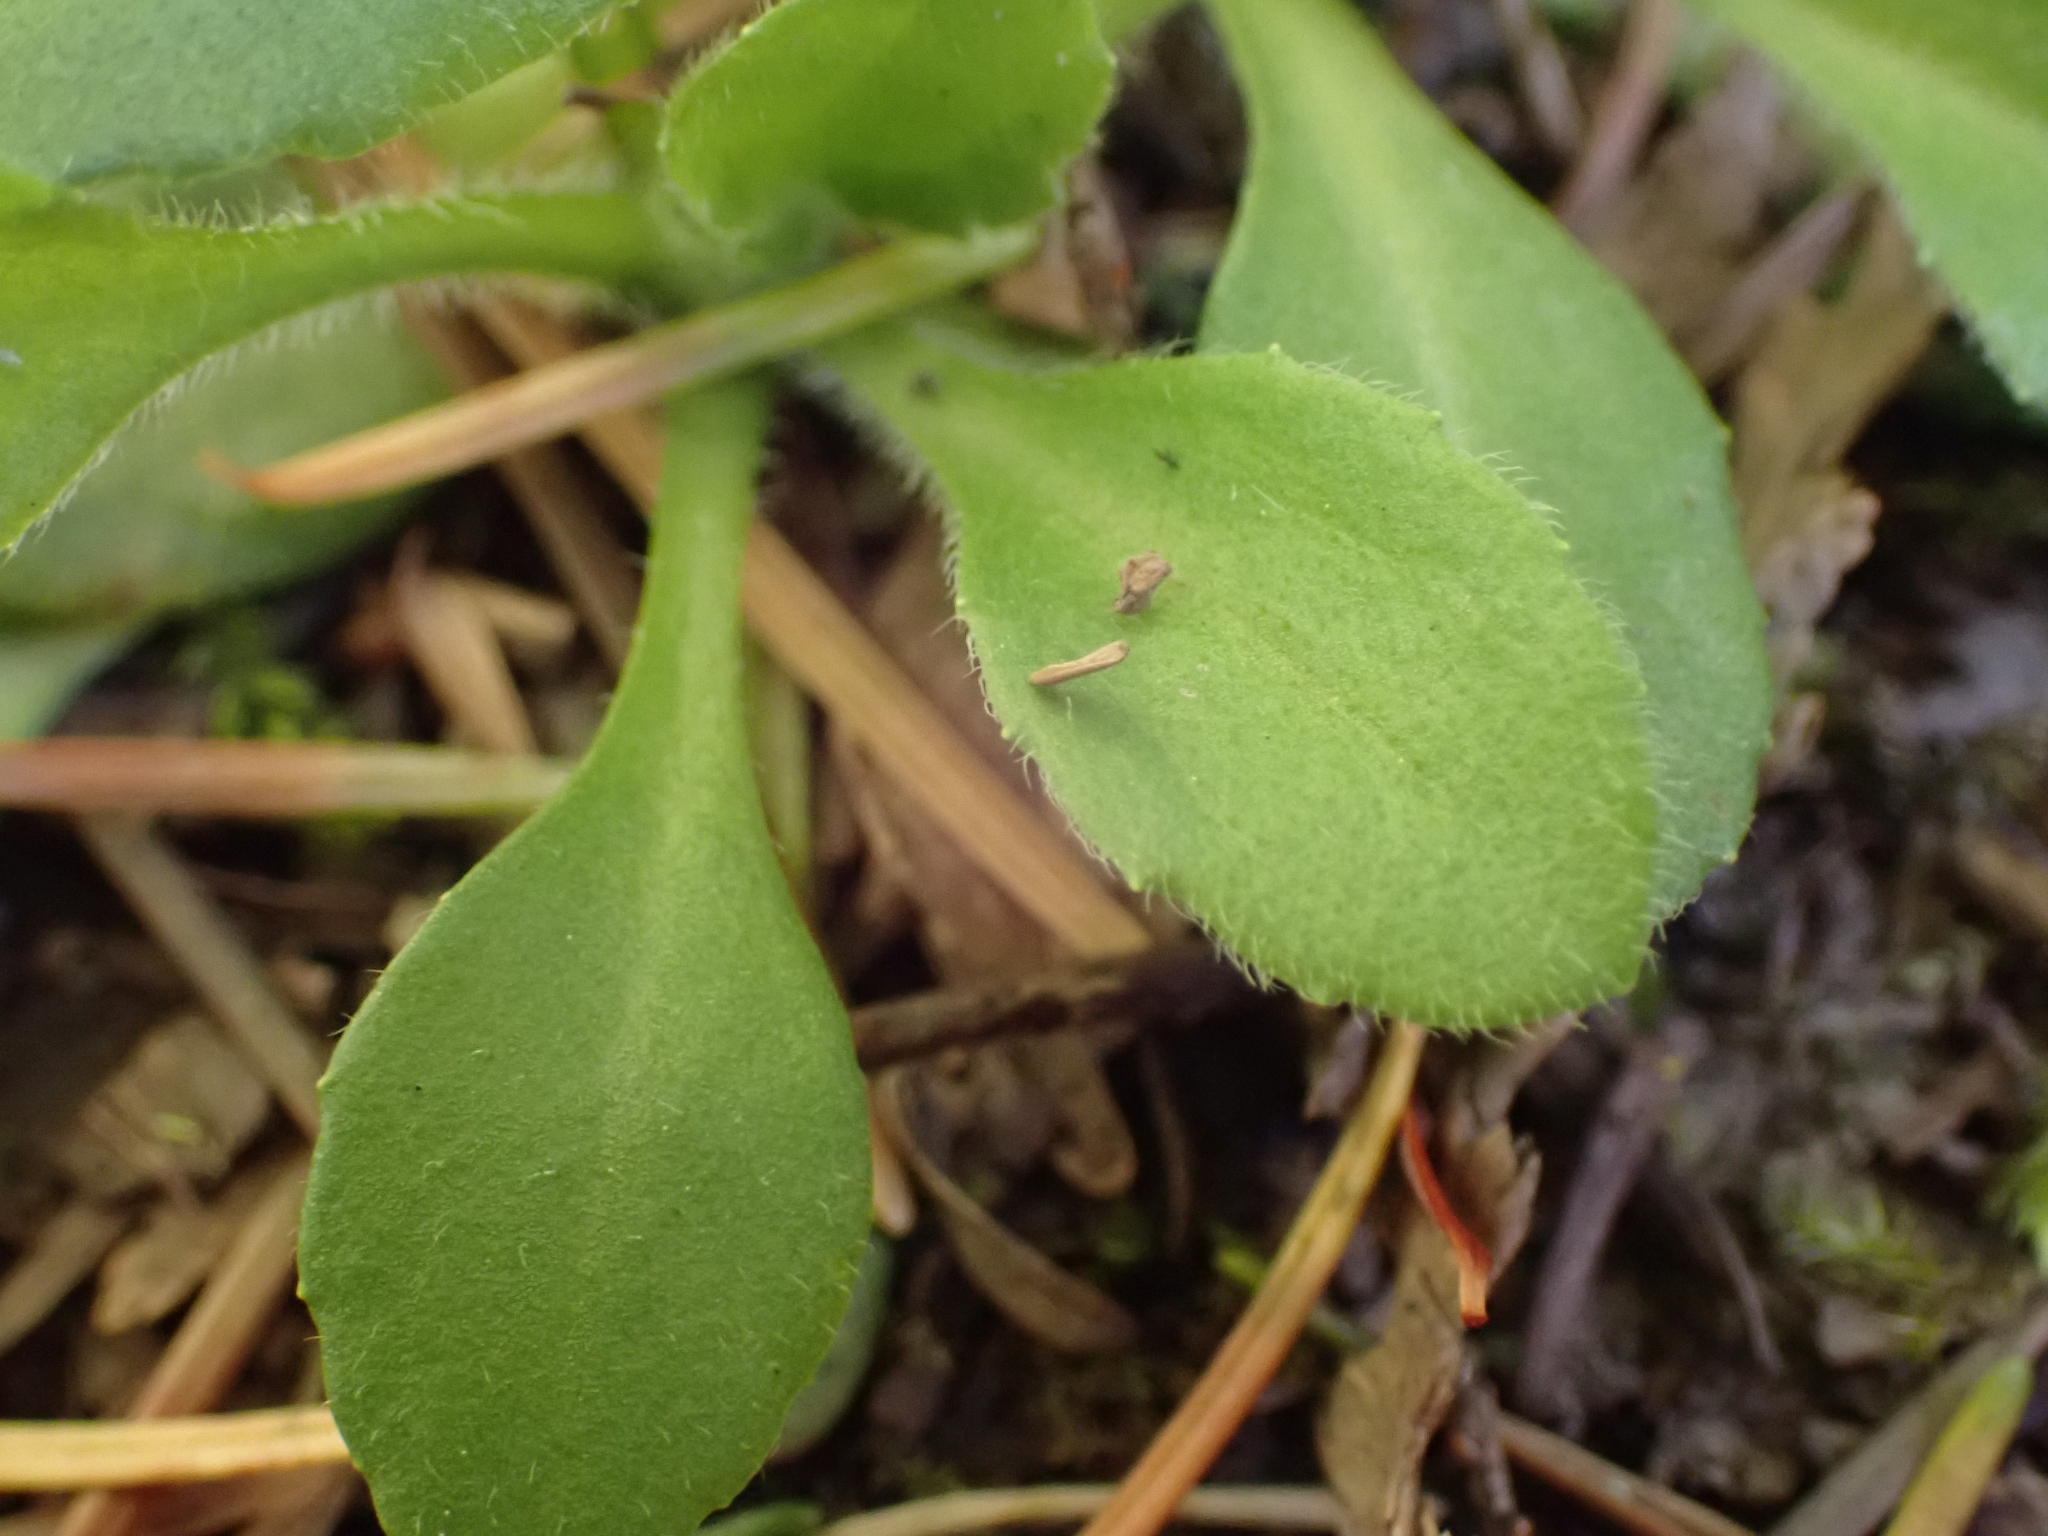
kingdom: Plantae
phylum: Tracheophyta
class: Magnoliopsida
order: Asterales
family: Asteraceae
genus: Bellis
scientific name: Bellis perennis
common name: Lawndaisy
